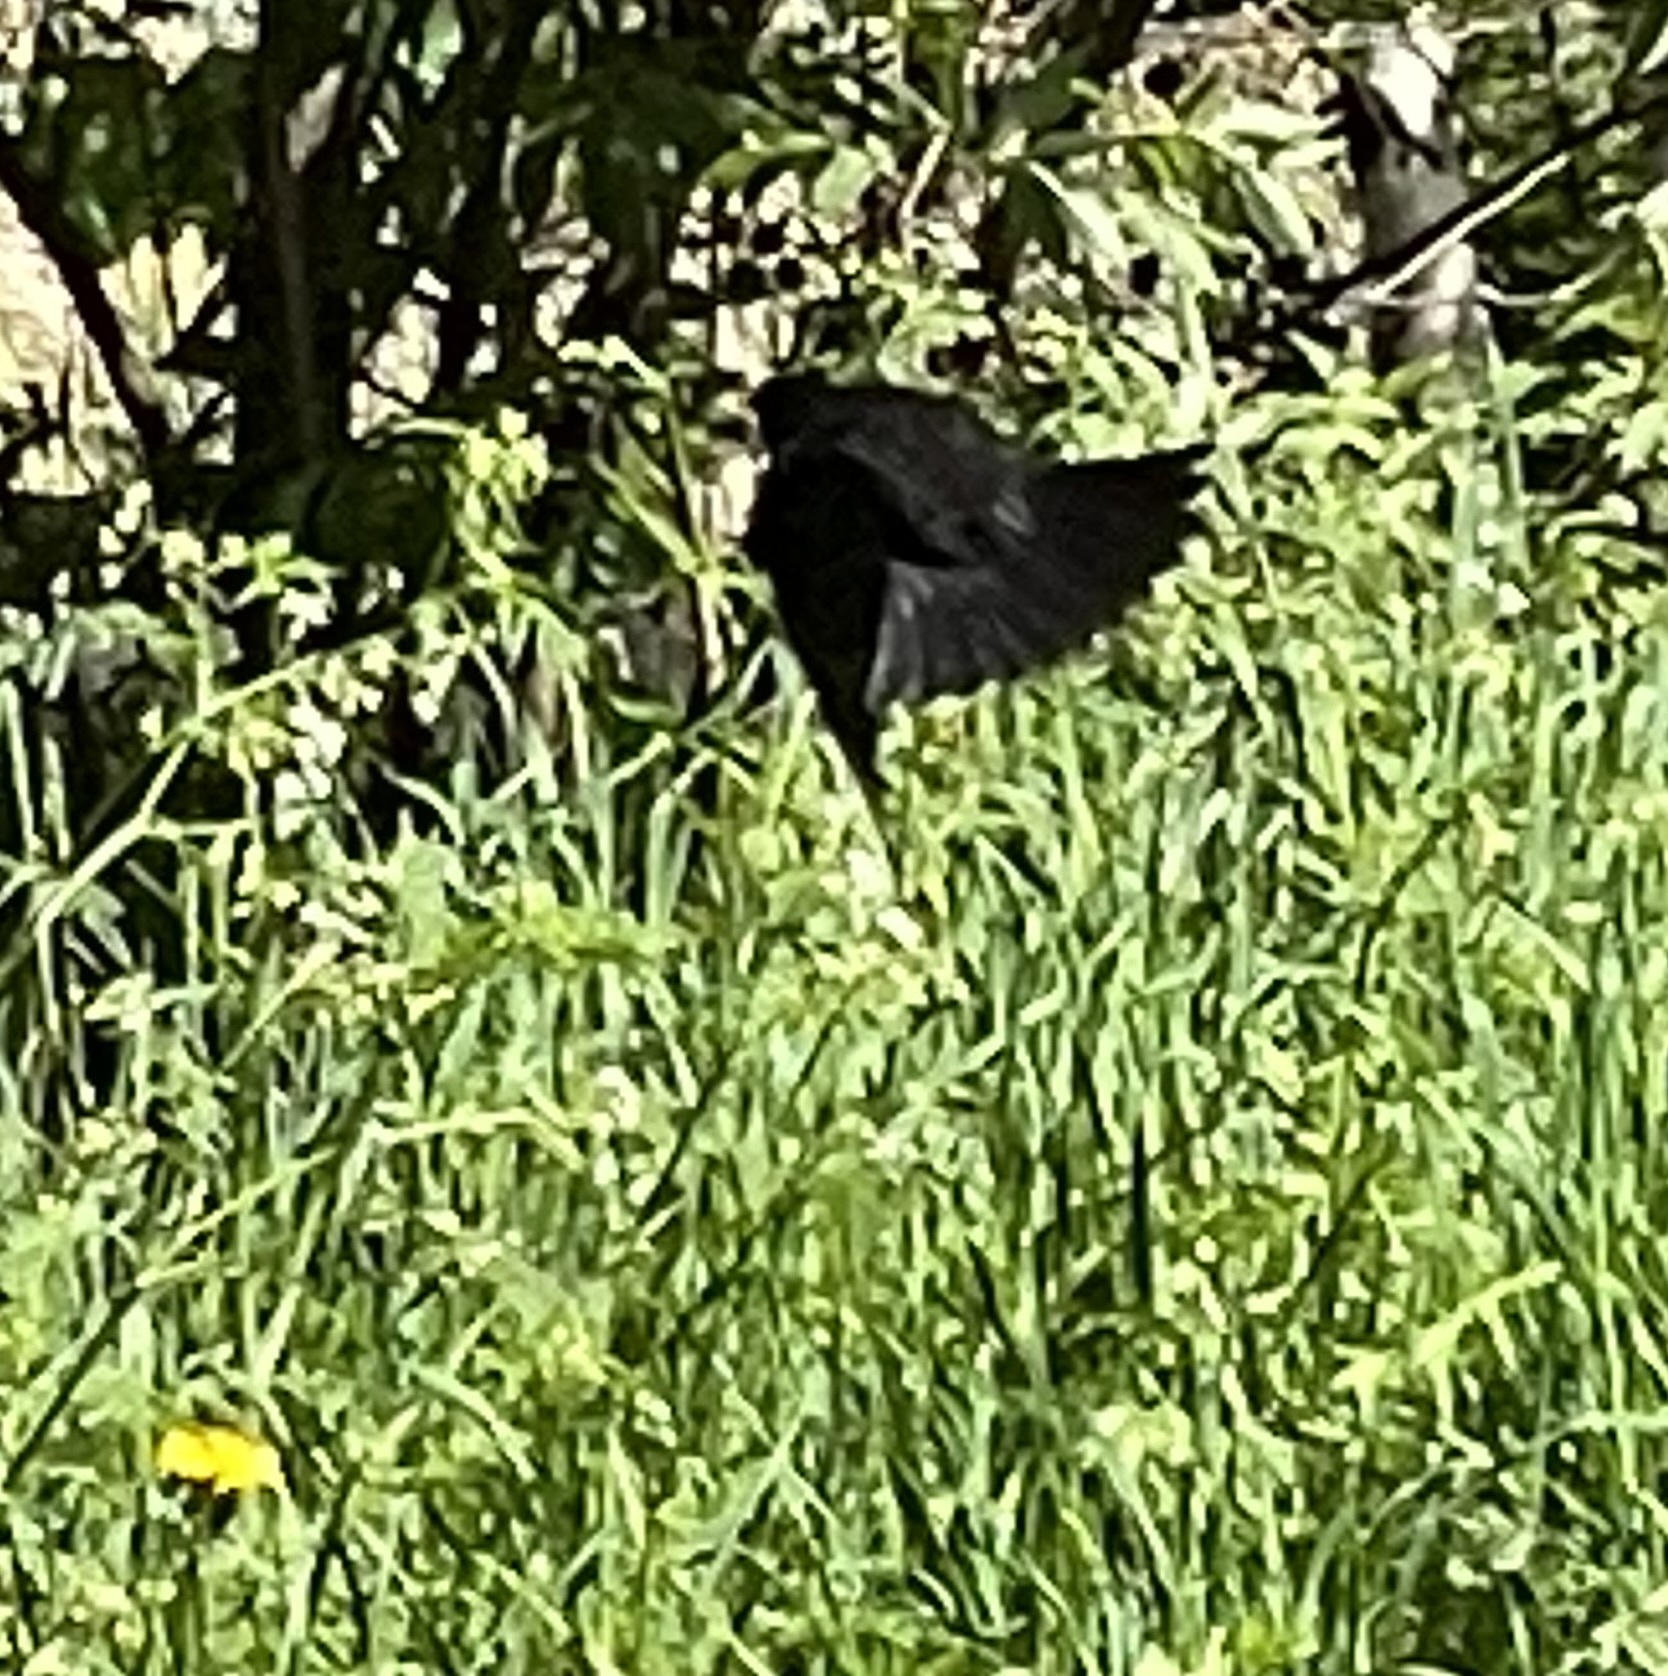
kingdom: Animalia
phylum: Chordata
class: Aves
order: Passeriformes
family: Turdidae
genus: Turdus
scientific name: Turdus merula
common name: Common blackbird
